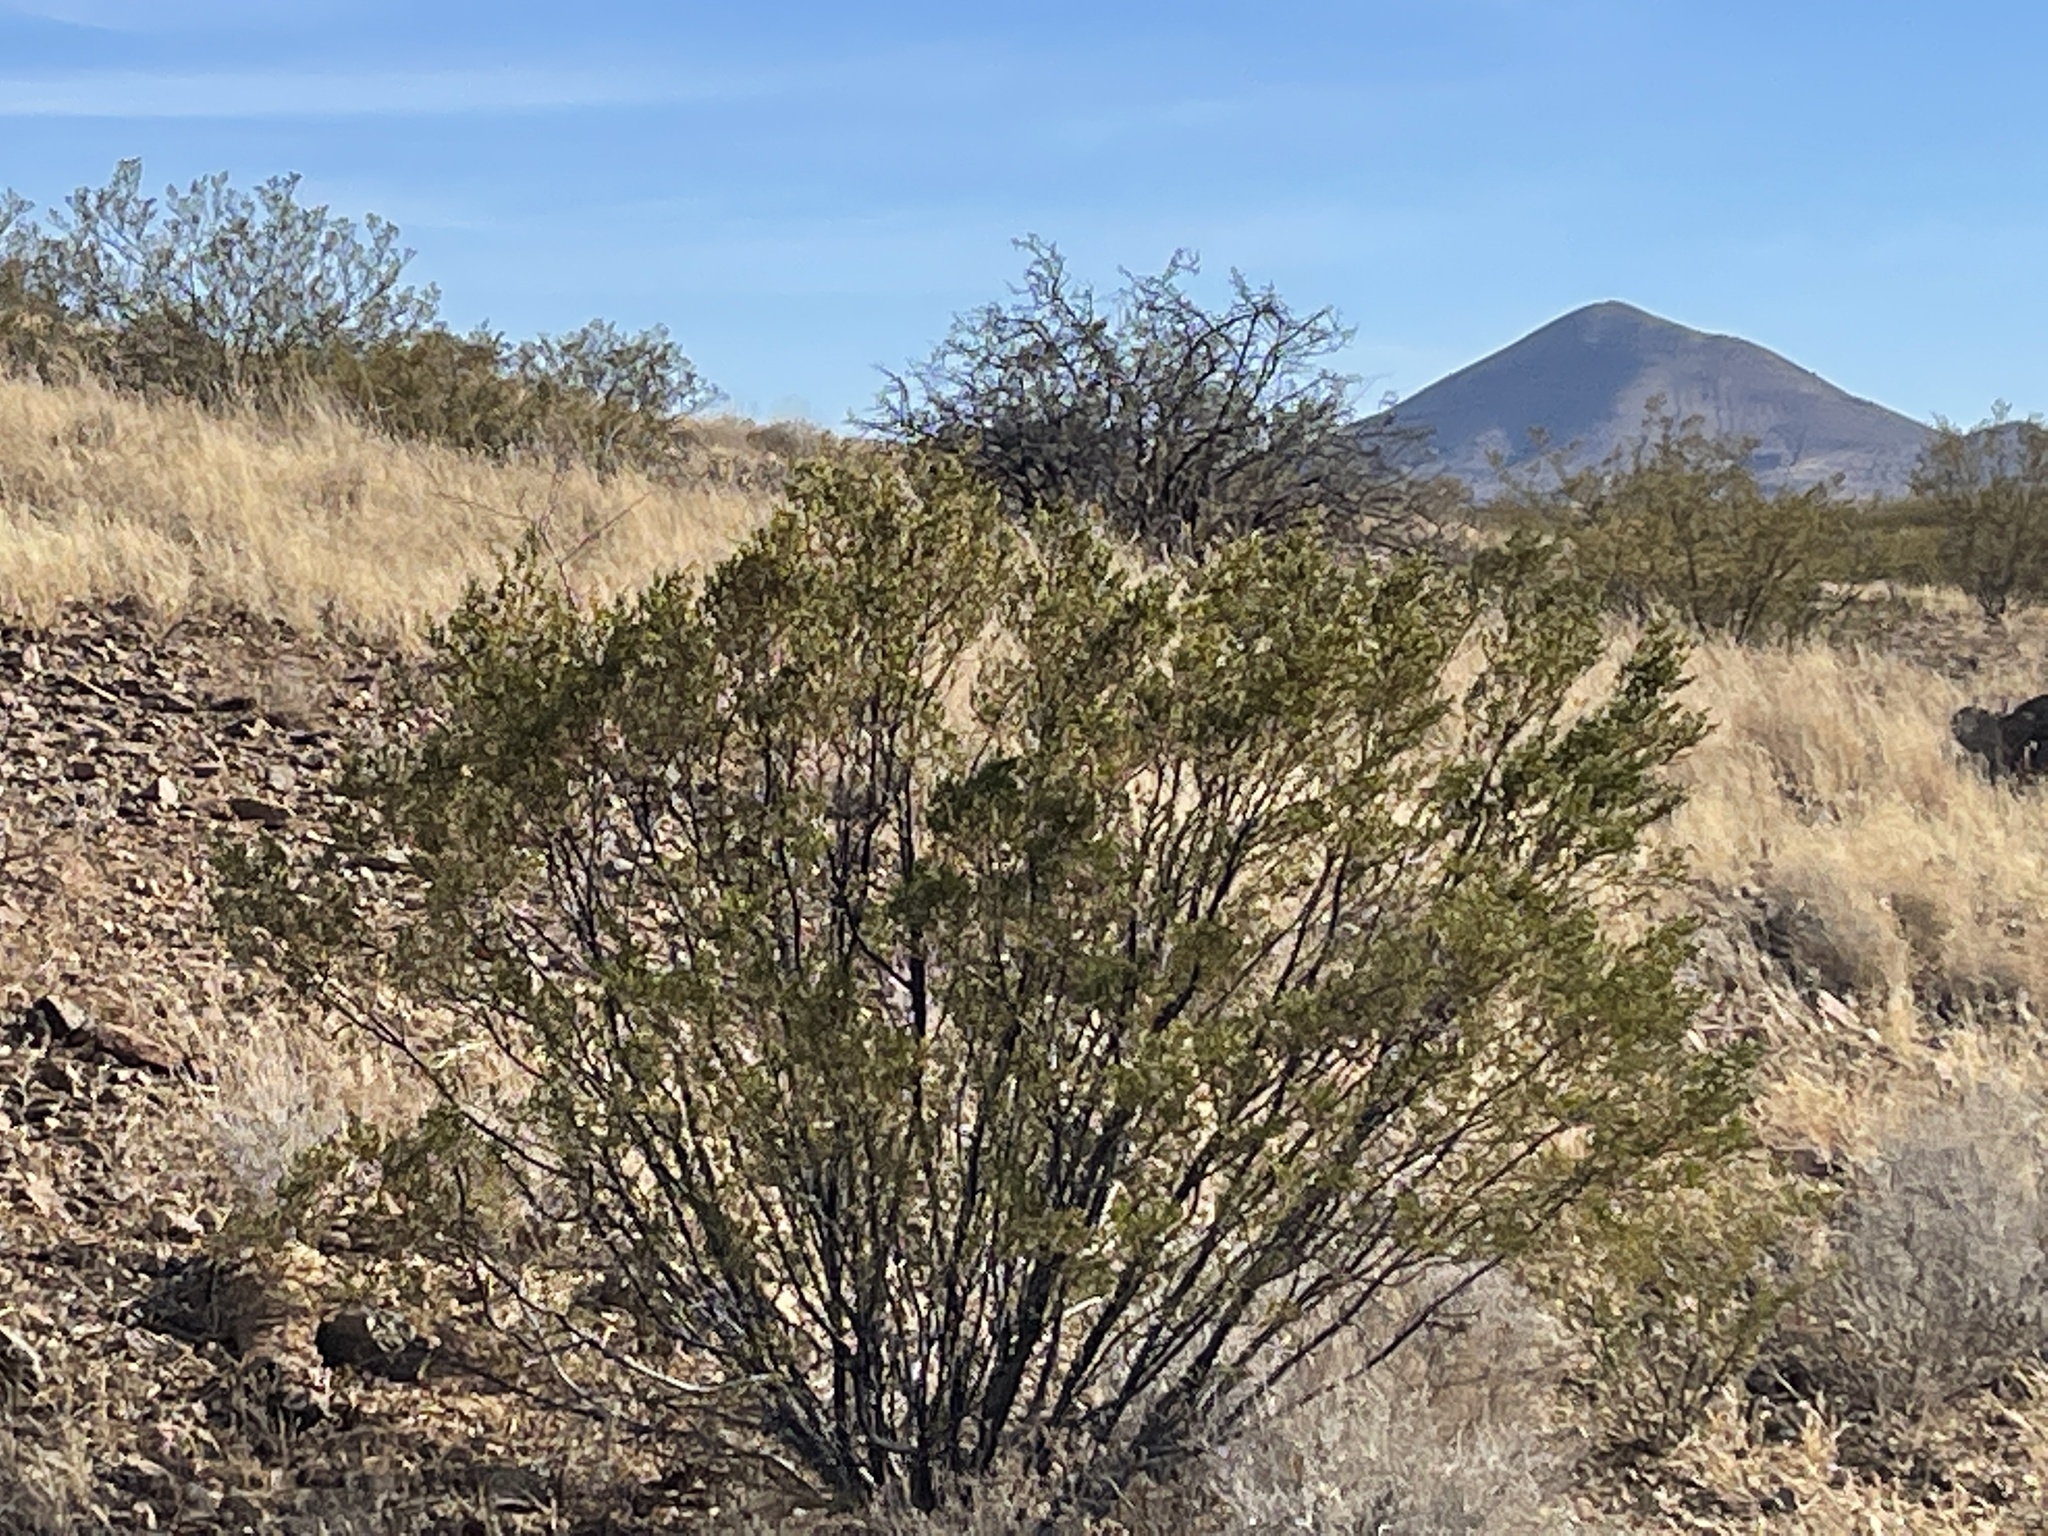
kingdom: Plantae
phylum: Tracheophyta
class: Magnoliopsida
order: Zygophyllales
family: Zygophyllaceae
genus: Larrea
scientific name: Larrea tridentata
